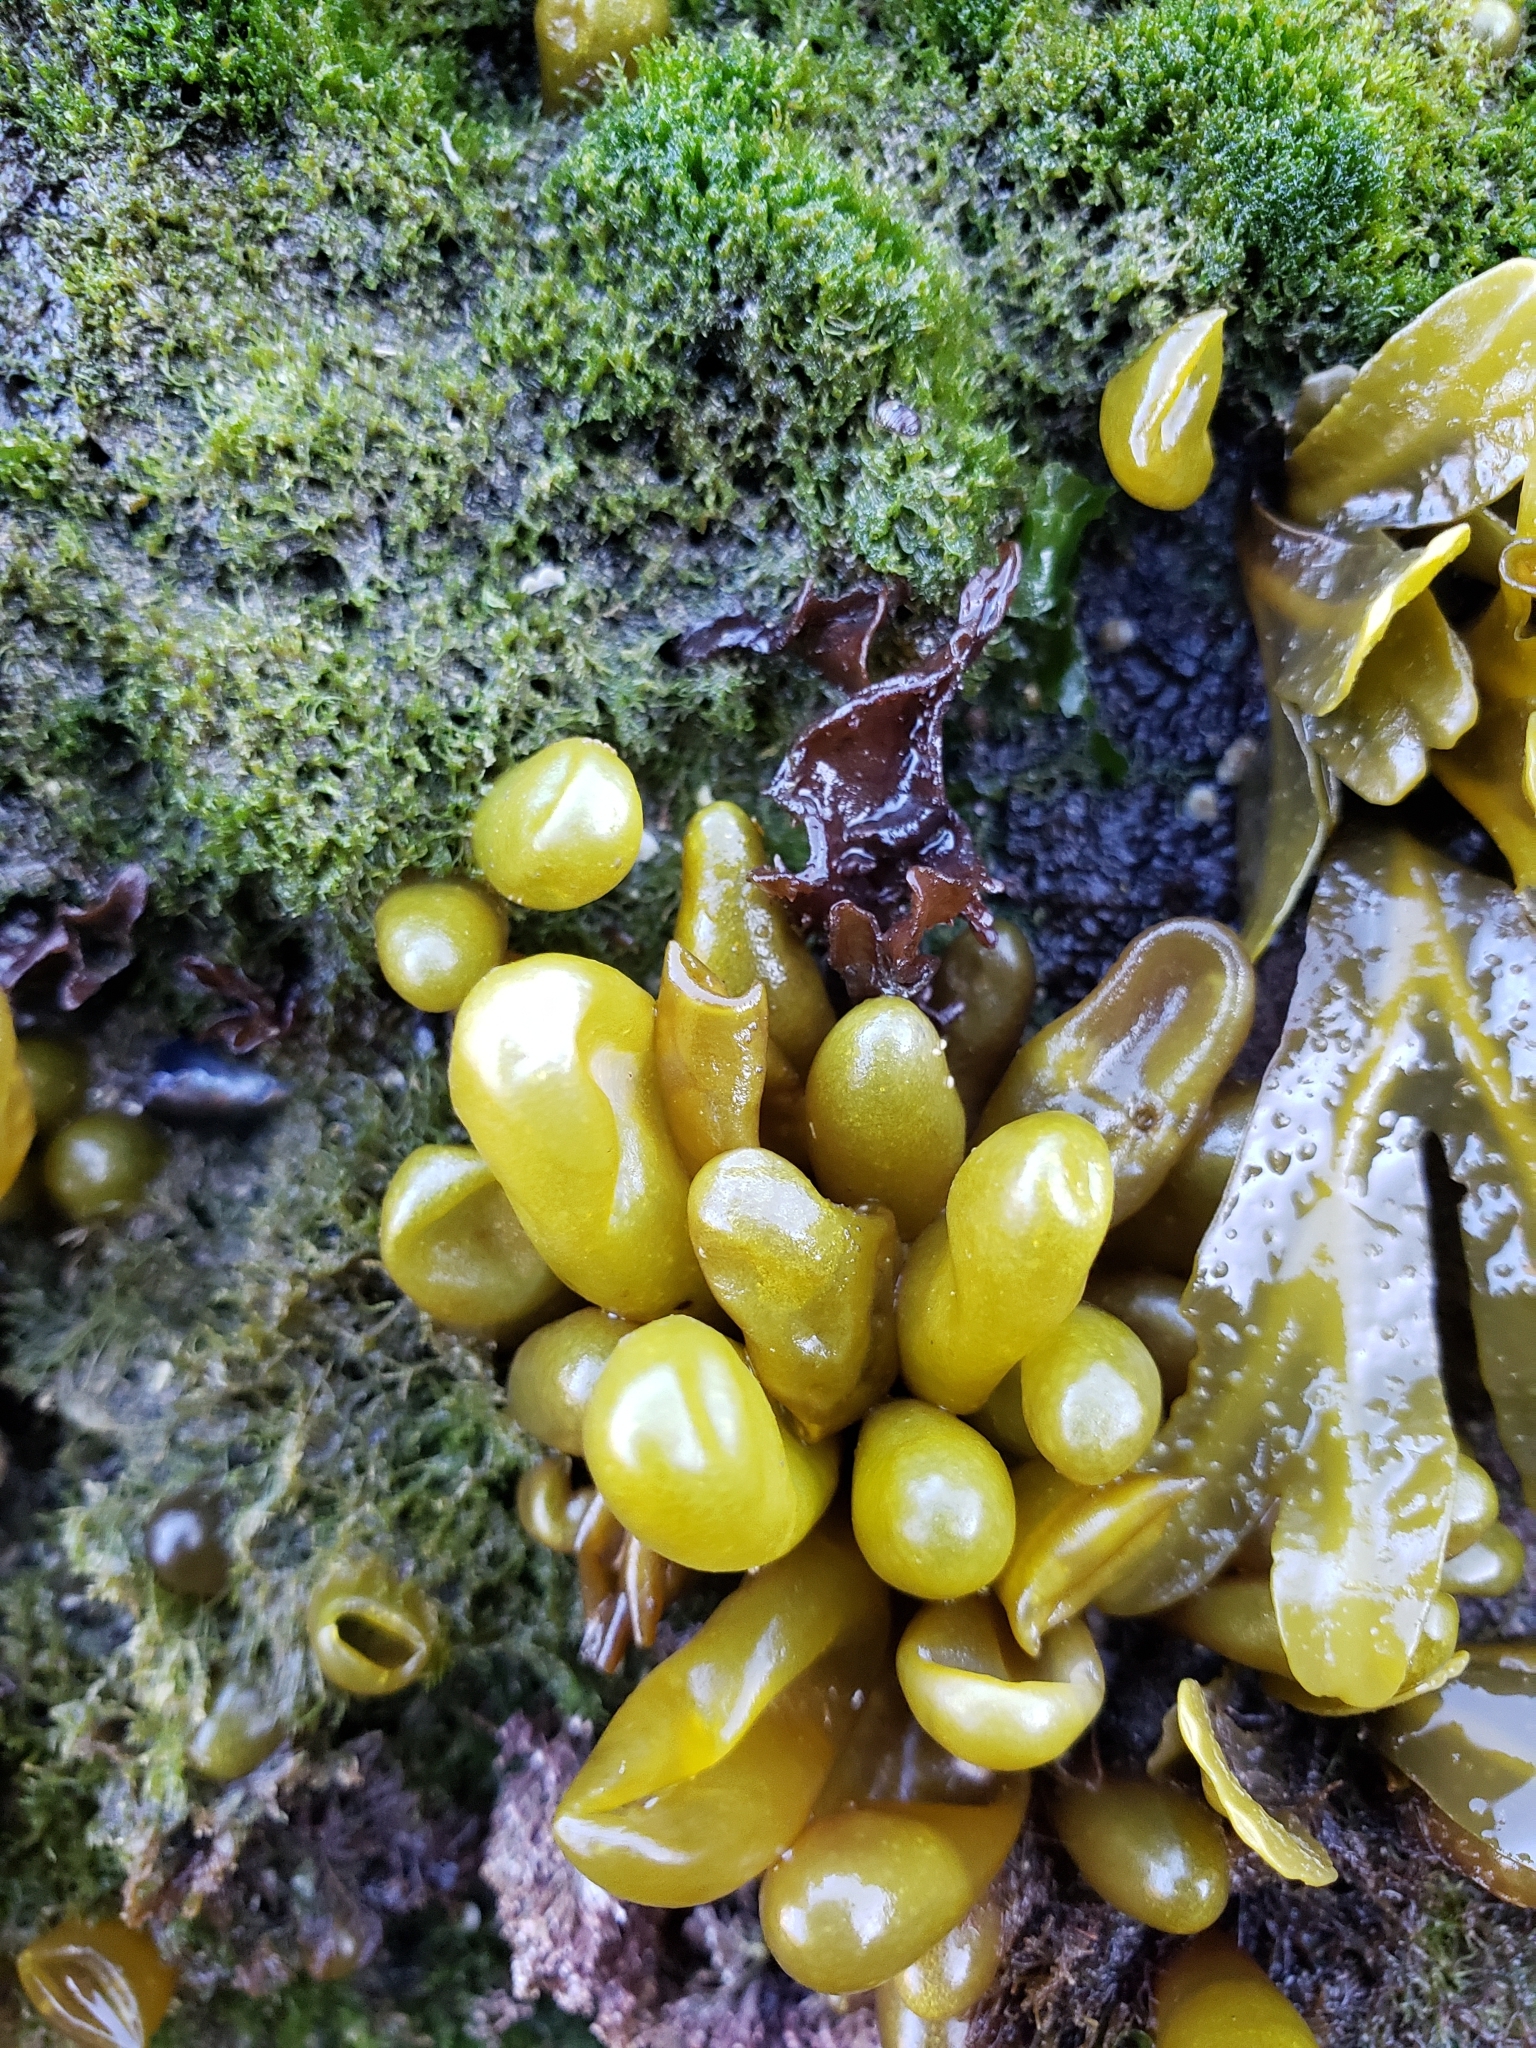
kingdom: Plantae
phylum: Rhodophyta
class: Florideophyceae
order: Palmariales
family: Palmariaceae
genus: Halosaccion
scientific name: Halosaccion glandiforme
